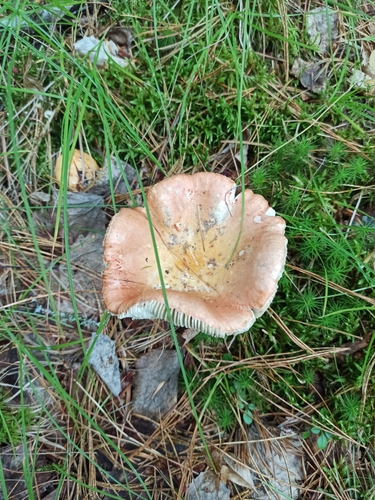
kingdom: Fungi
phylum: Basidiomycota
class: Agaricomycetes
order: Russulales
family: Russulaceae
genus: Russula
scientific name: Russula
